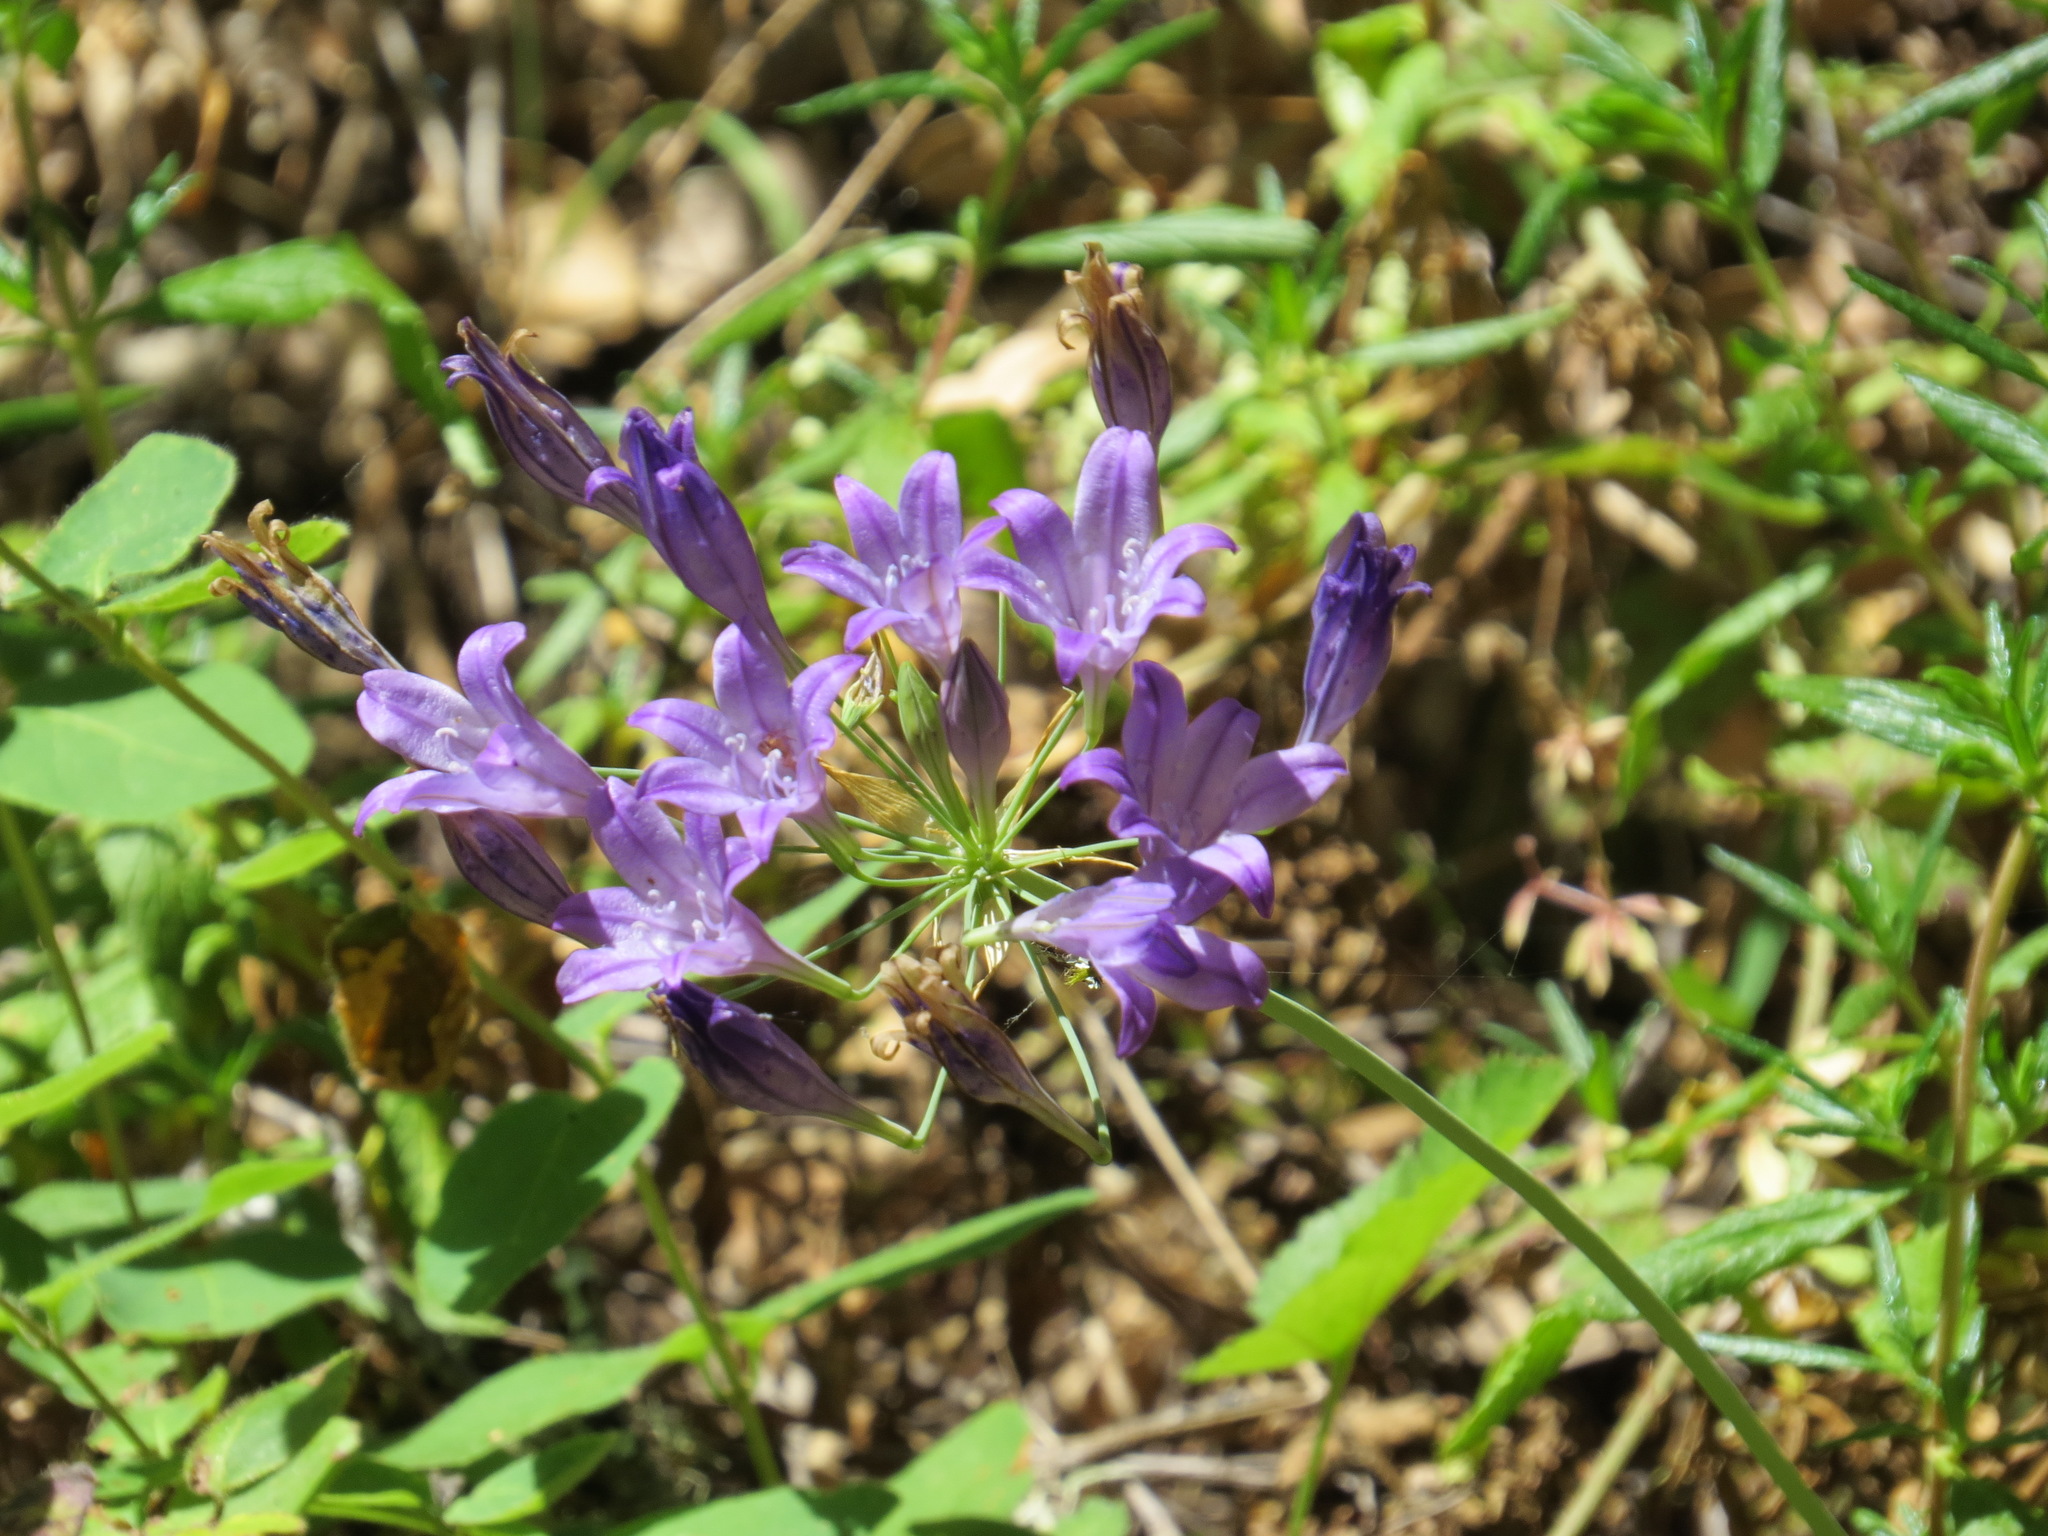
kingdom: Plantae
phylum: Tracheophyta
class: Liliopsida
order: Asparagales
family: Asparagaceae
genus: Triteleia
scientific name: Triteleia laxa
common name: Triplet-lily
